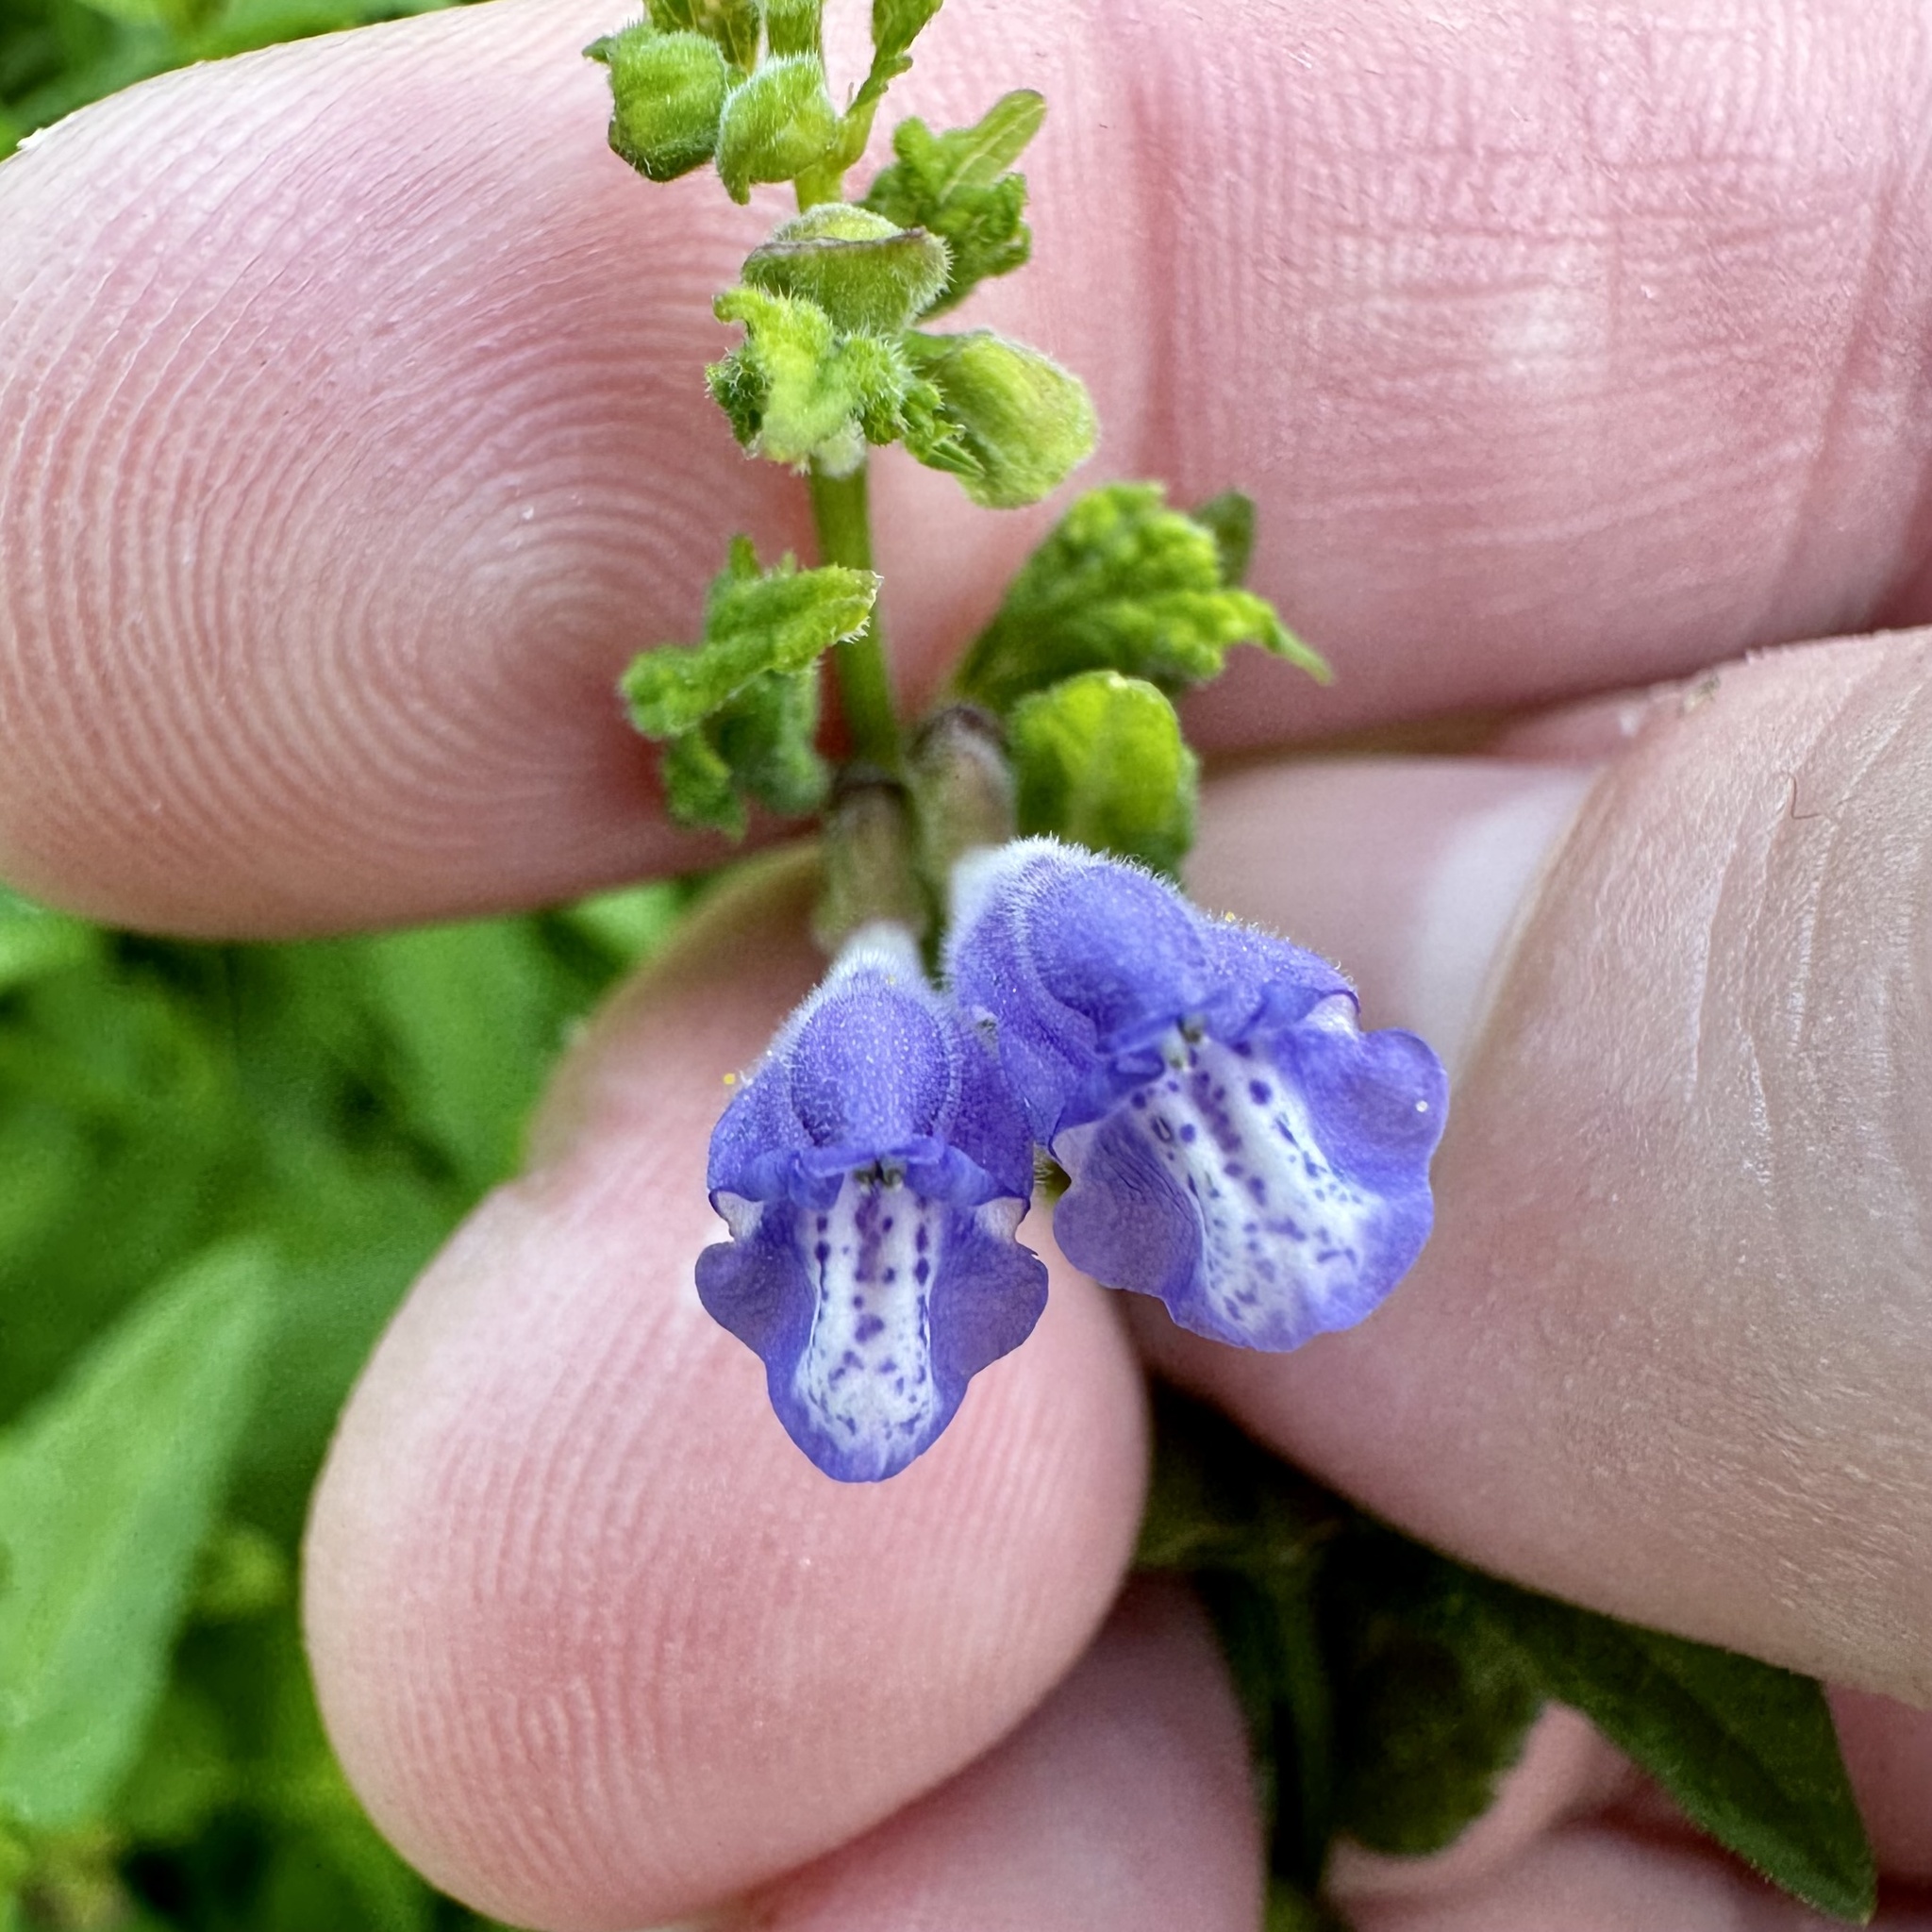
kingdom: Plantae
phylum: Tracheophyta
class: Magnoliopsida
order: Lamiales
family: Lamiaceae
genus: Scutellaria
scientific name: Scutellaria galericulata
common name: Skullcap
